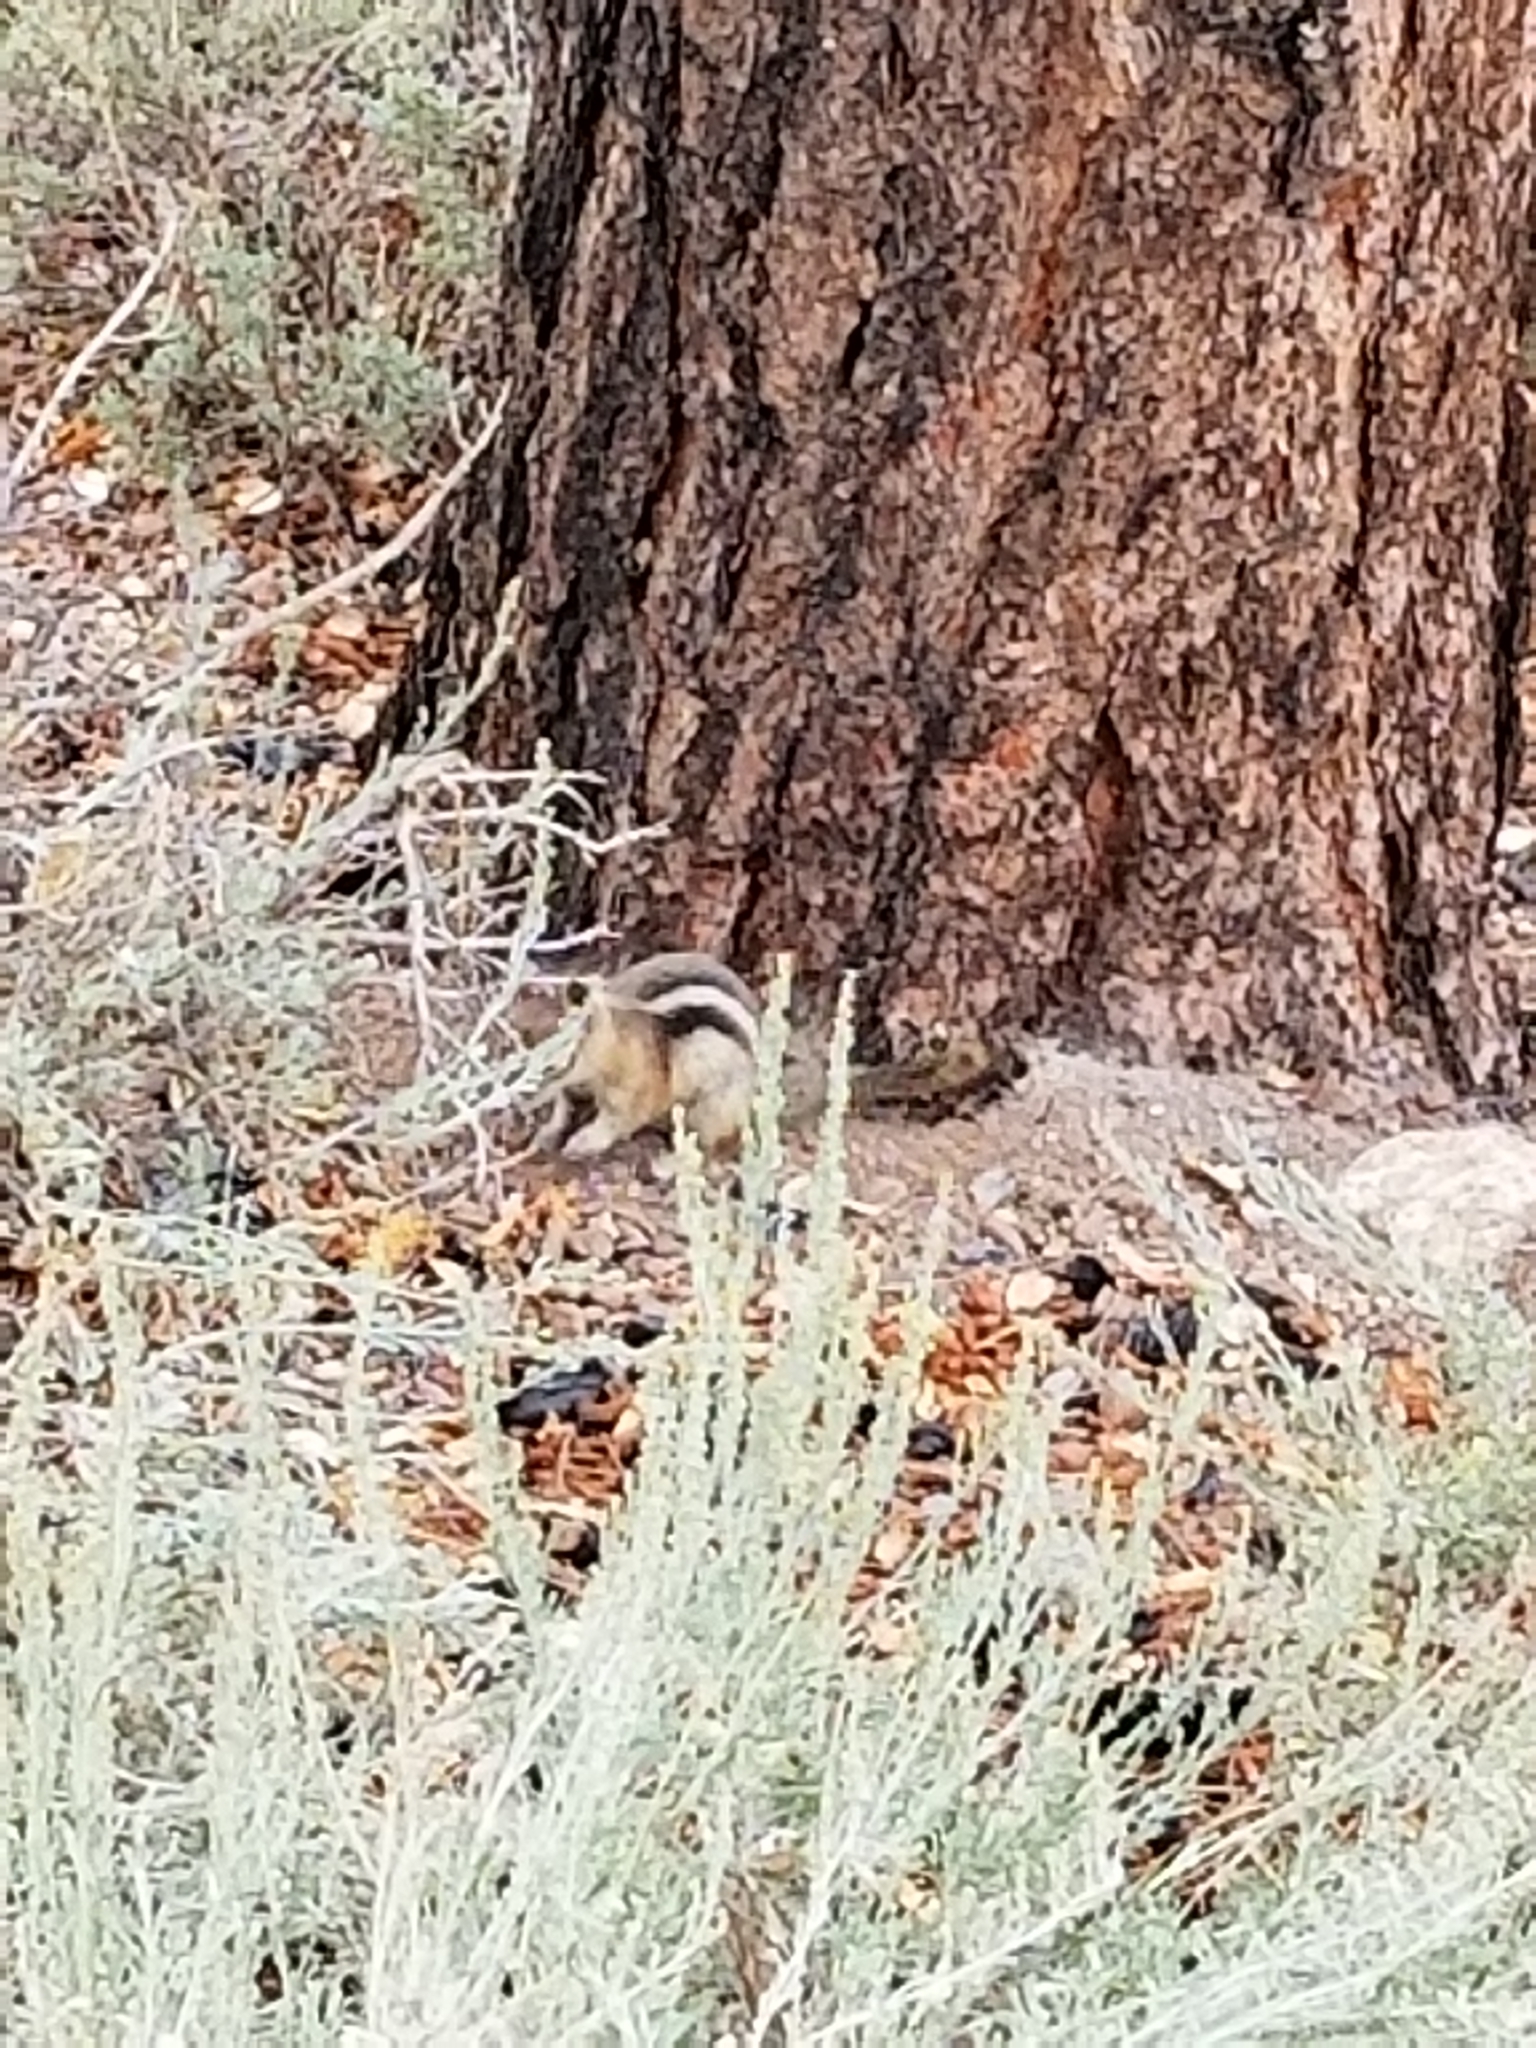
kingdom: Animalia
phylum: Chordata
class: Mammalia
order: Rodentia
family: Sciuridae
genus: Callospermophilus
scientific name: Callospermophilus lateralis
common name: Golden-mantled ground squirrel
